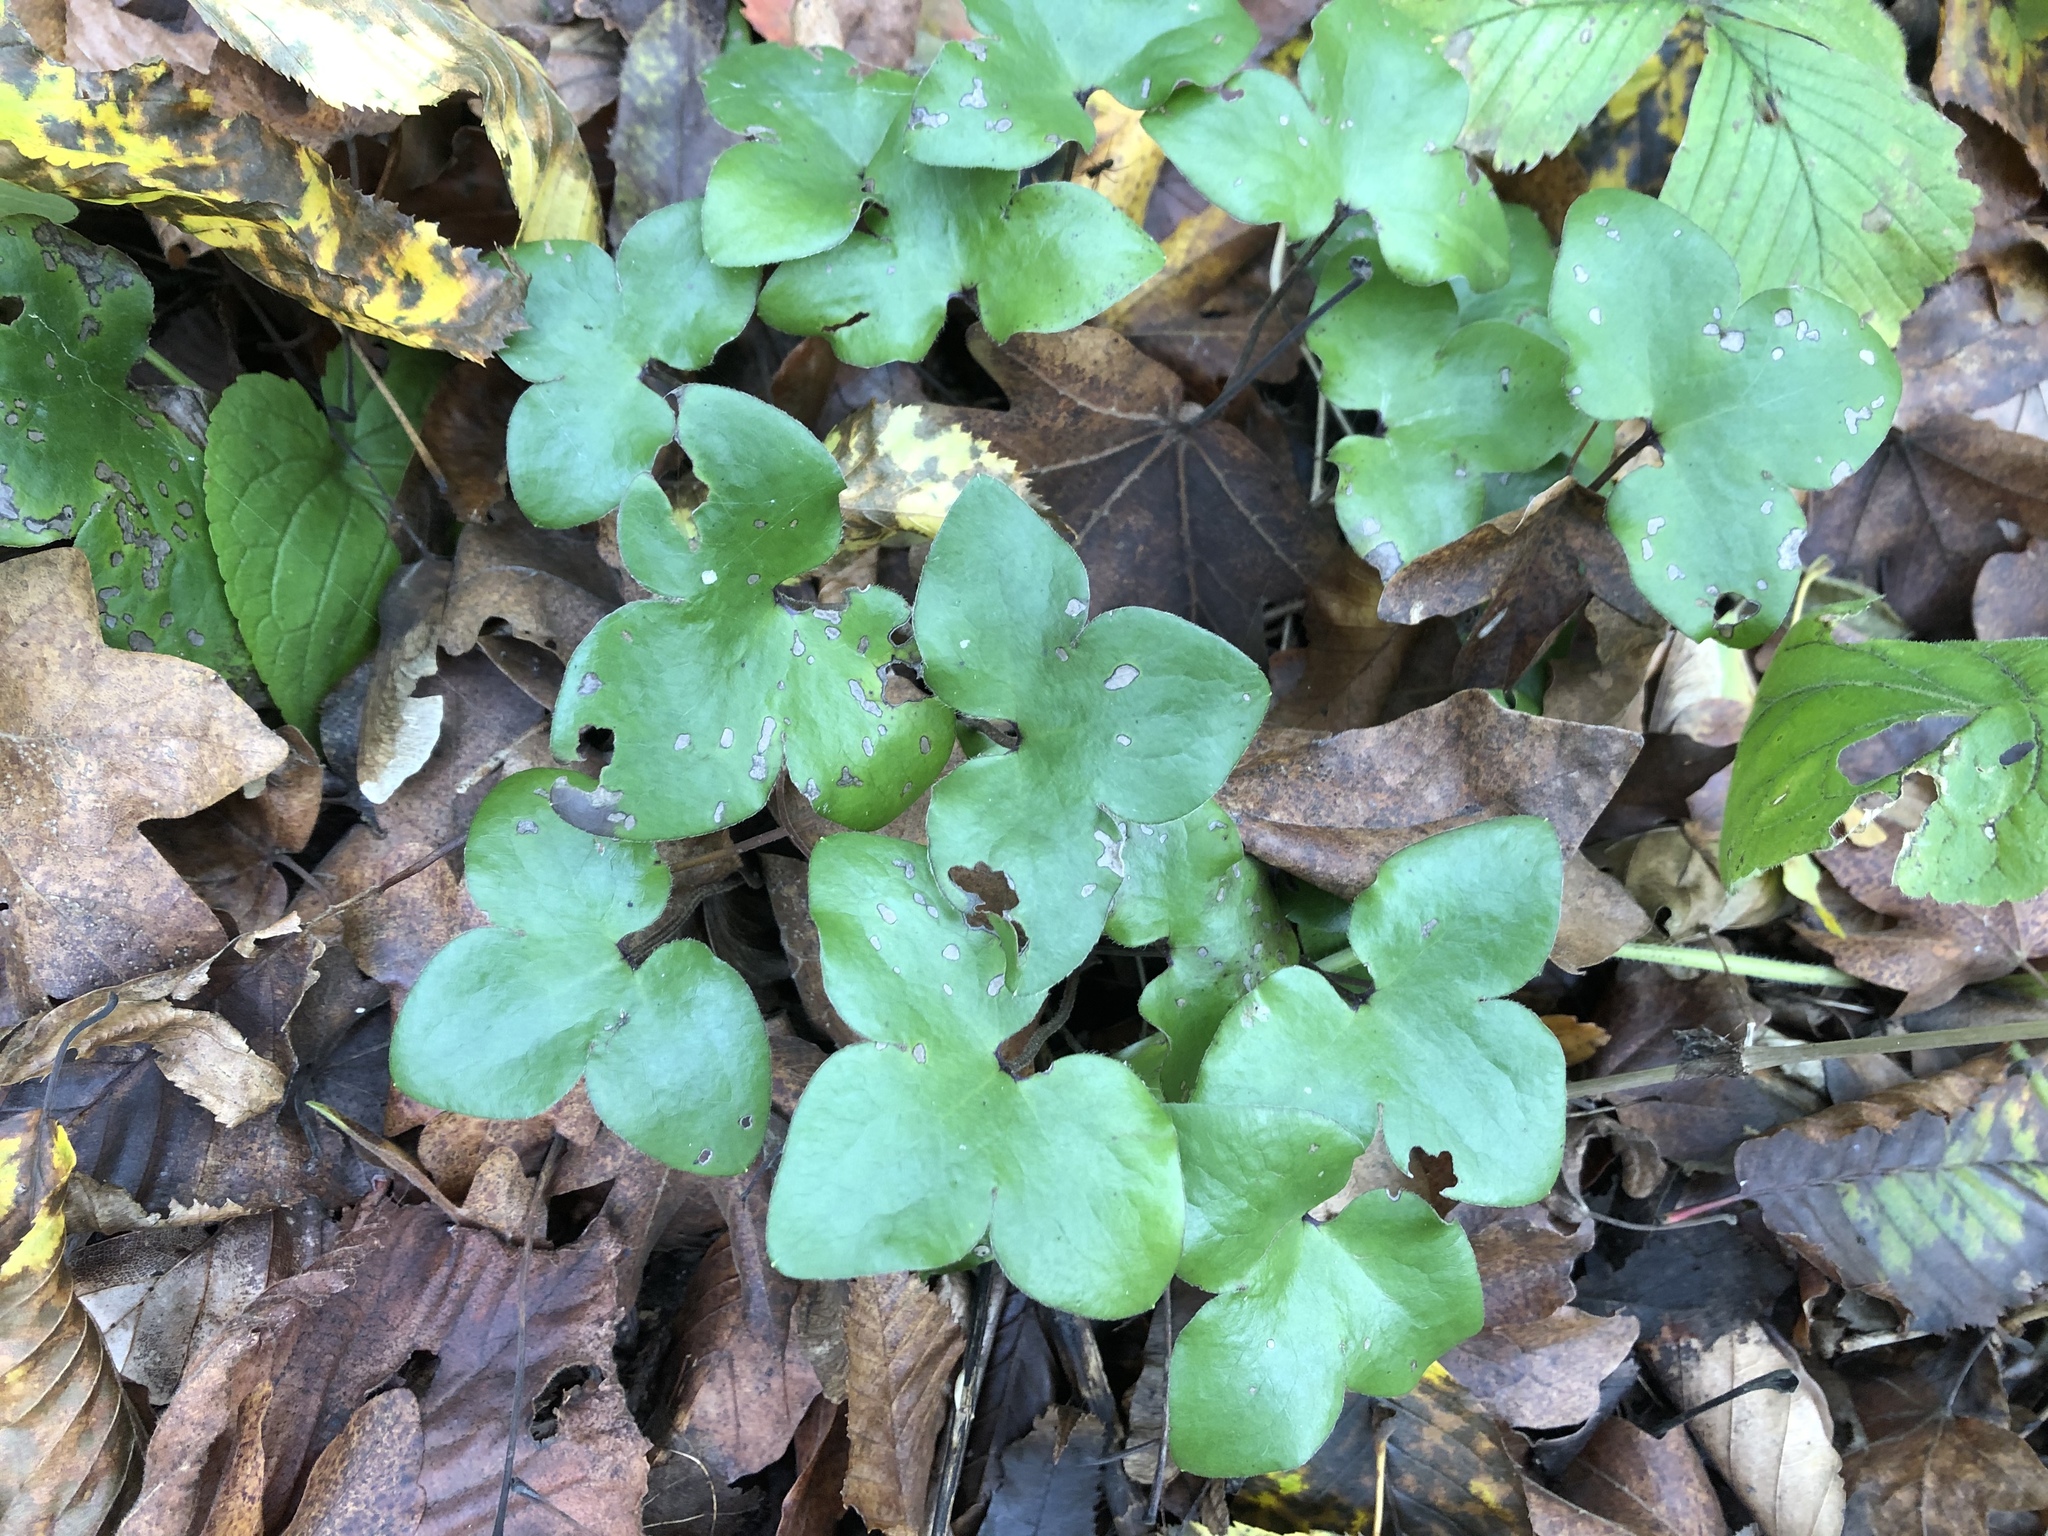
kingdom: Plantae
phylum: Tracheophyta
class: Magnoliopsida
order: Ranunculales
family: Ranunculaceae
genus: Hepatica
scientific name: Hepatica nobilis
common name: Liverleaf
